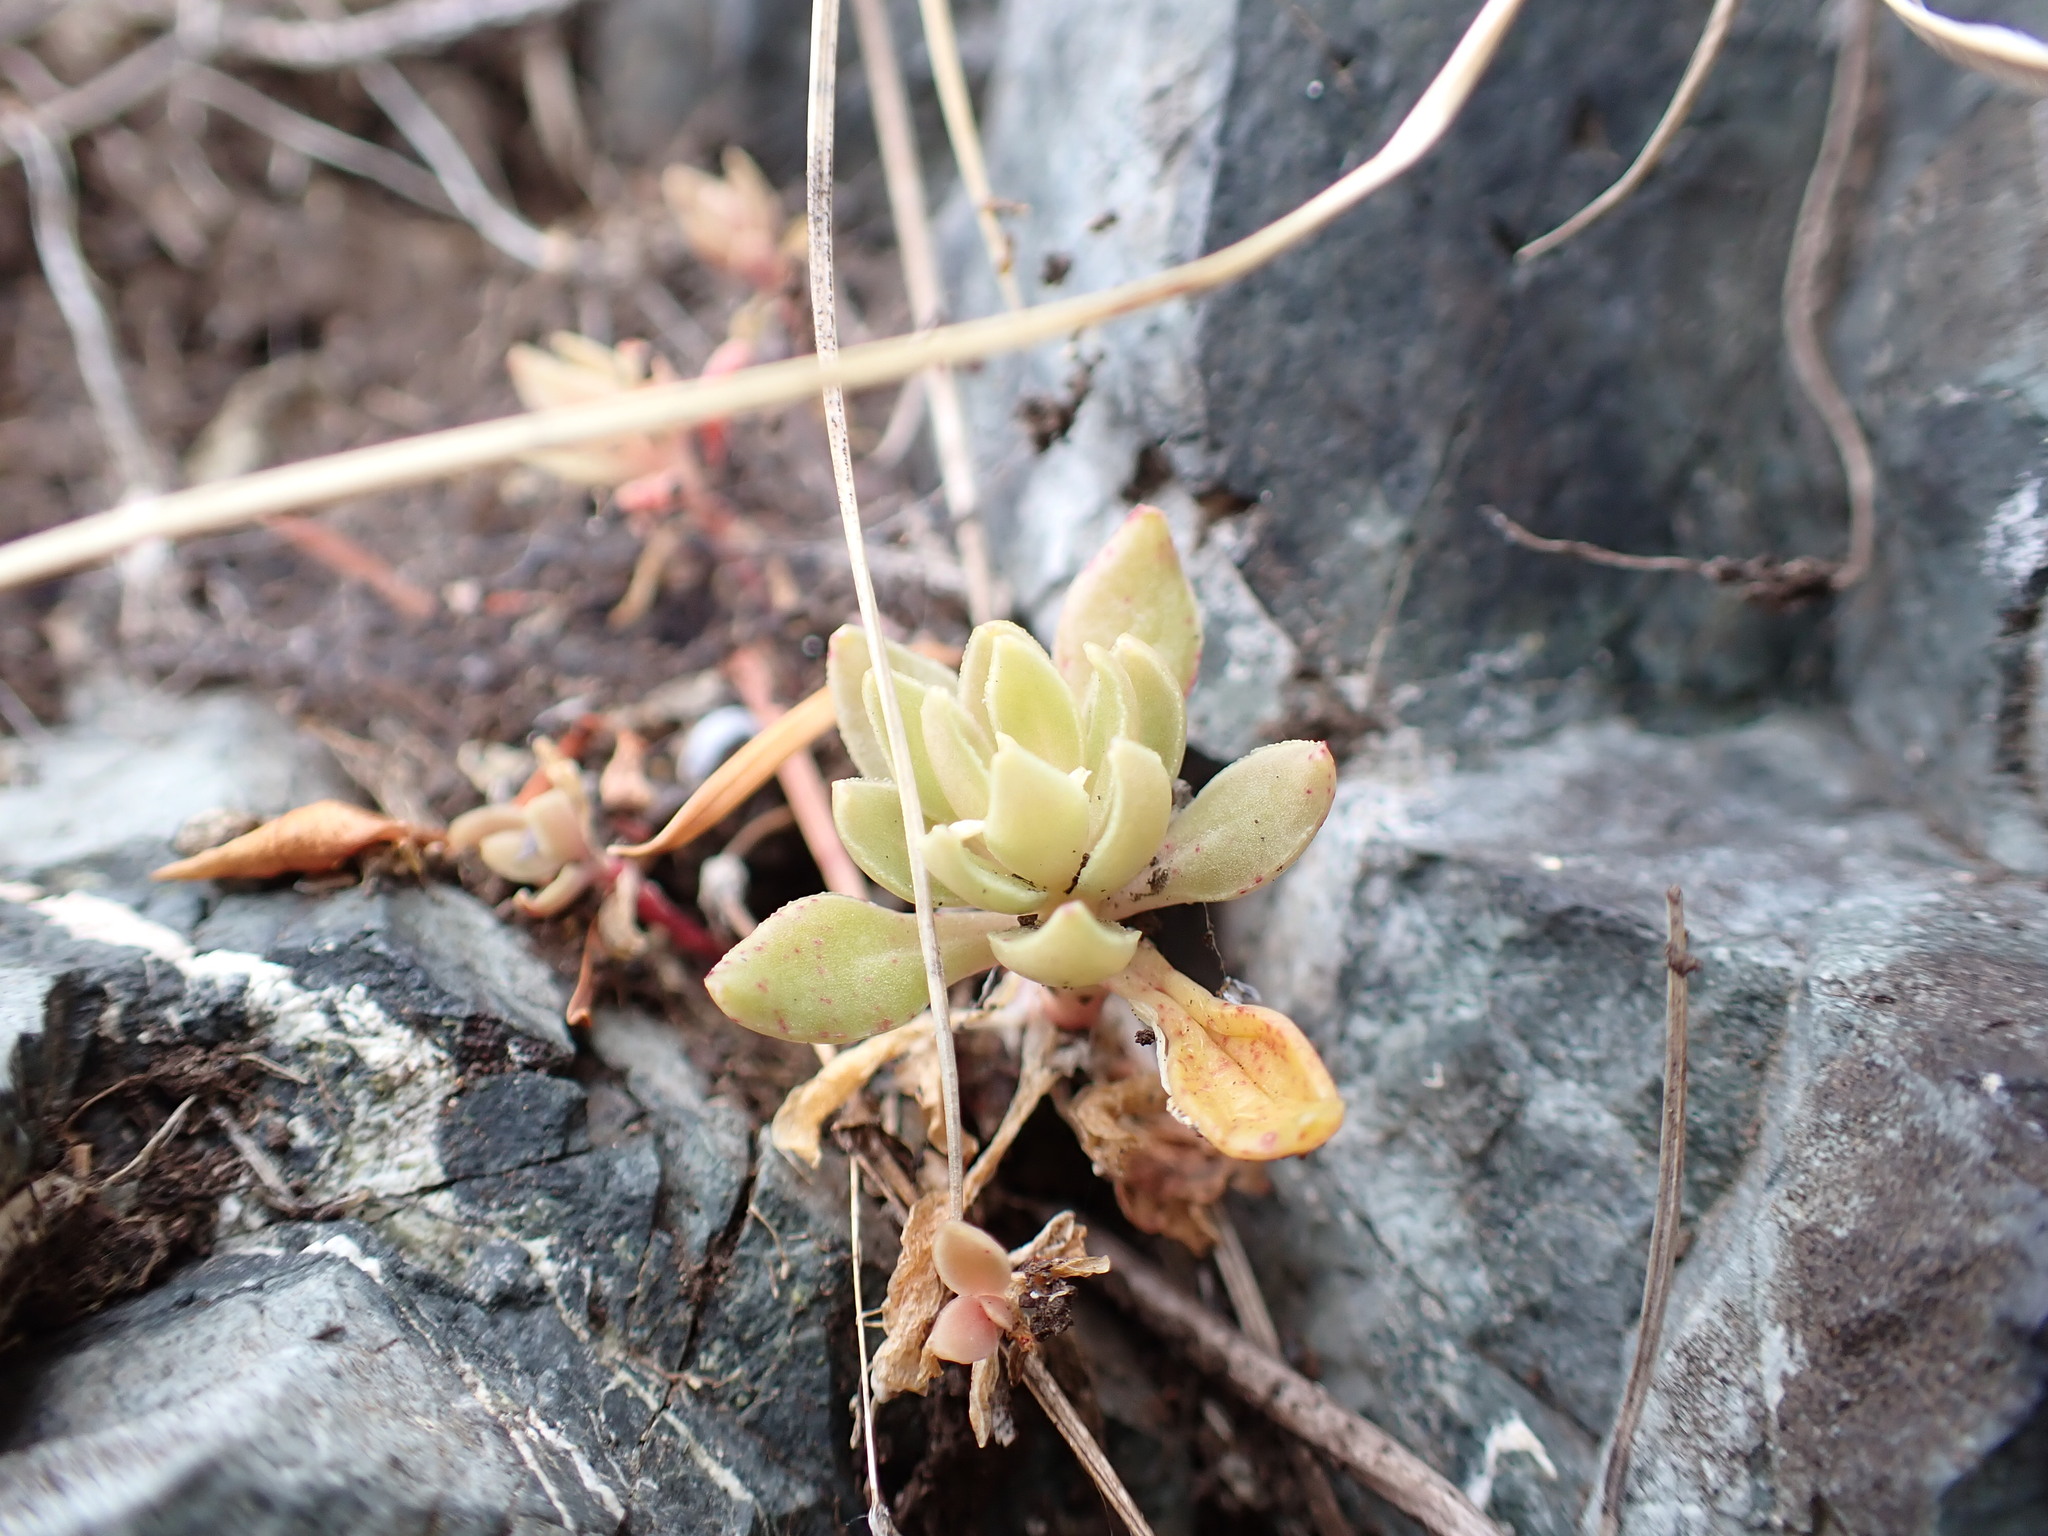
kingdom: Plantae
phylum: Tracheophyta
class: Magnoliopsida
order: Caryophyllales
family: Montiaceae
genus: Montia
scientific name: Montia parvifolia
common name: Small-leaved blinks
